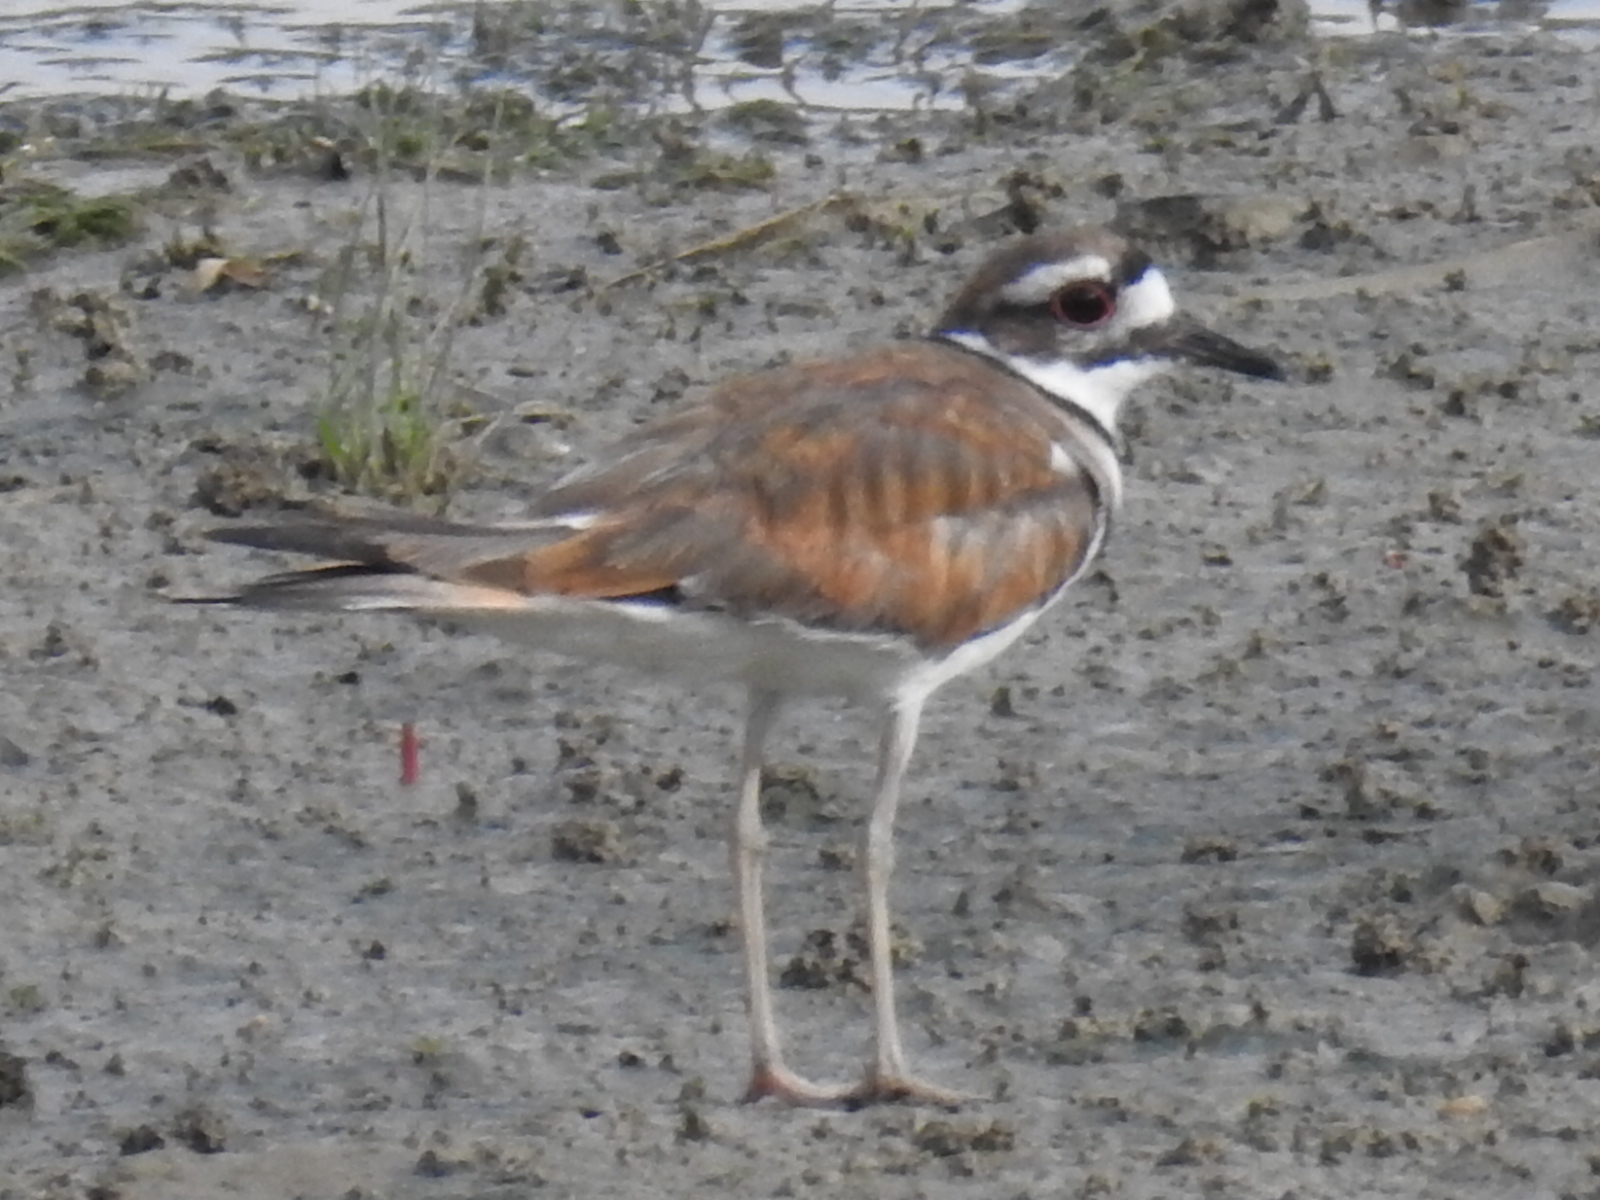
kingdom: Animalia
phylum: Chordata
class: Aves
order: Charadriiformes
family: Charadriidae
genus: Charadrius
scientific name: Charadrius vociferus
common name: Killdeer
